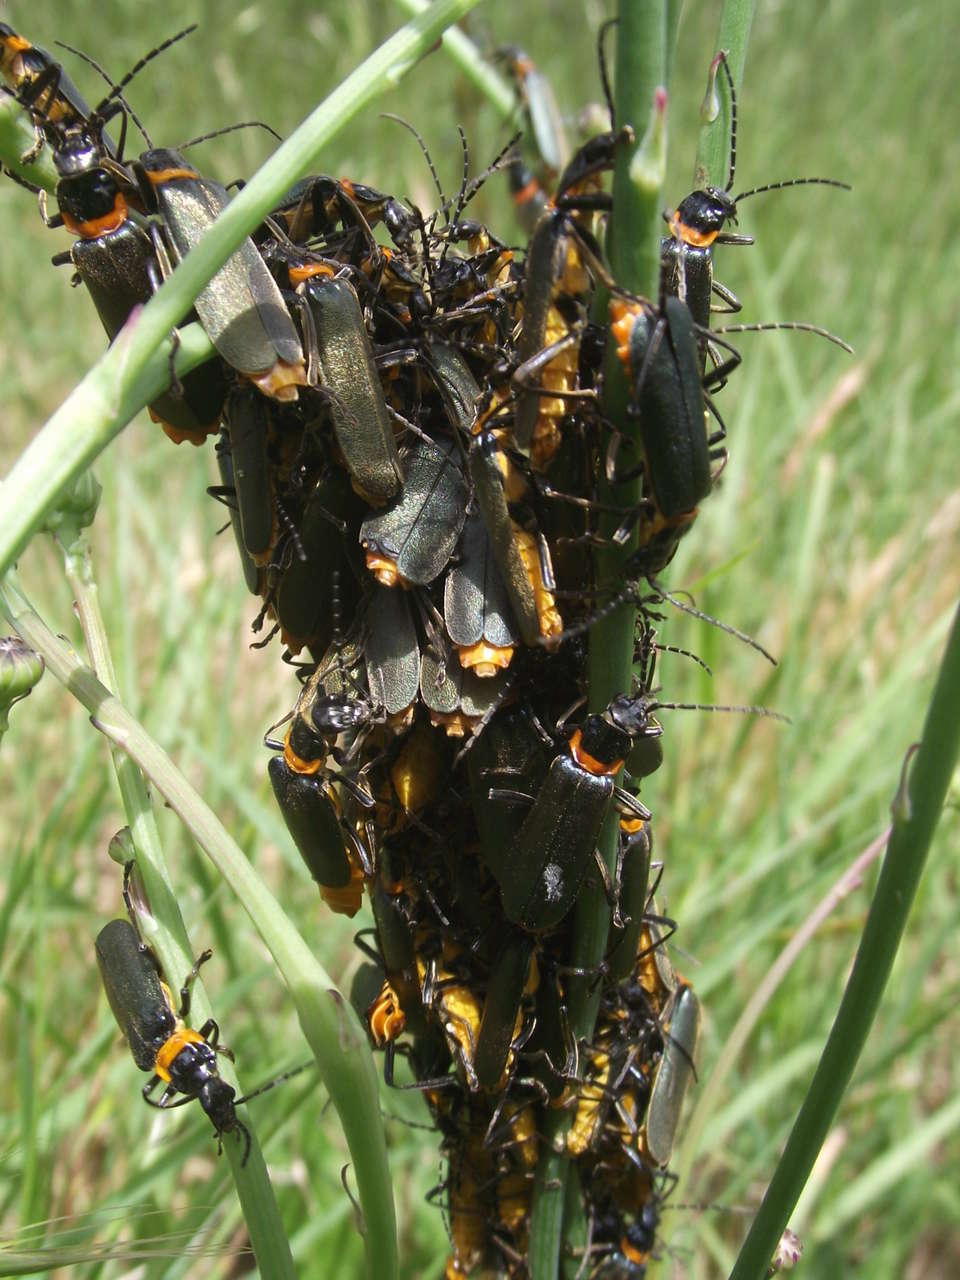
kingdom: Animalia
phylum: Arthropoda
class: Insecta
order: Coleoptera
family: Cantharidae
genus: Chauliognathus
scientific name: Chauliognathus
